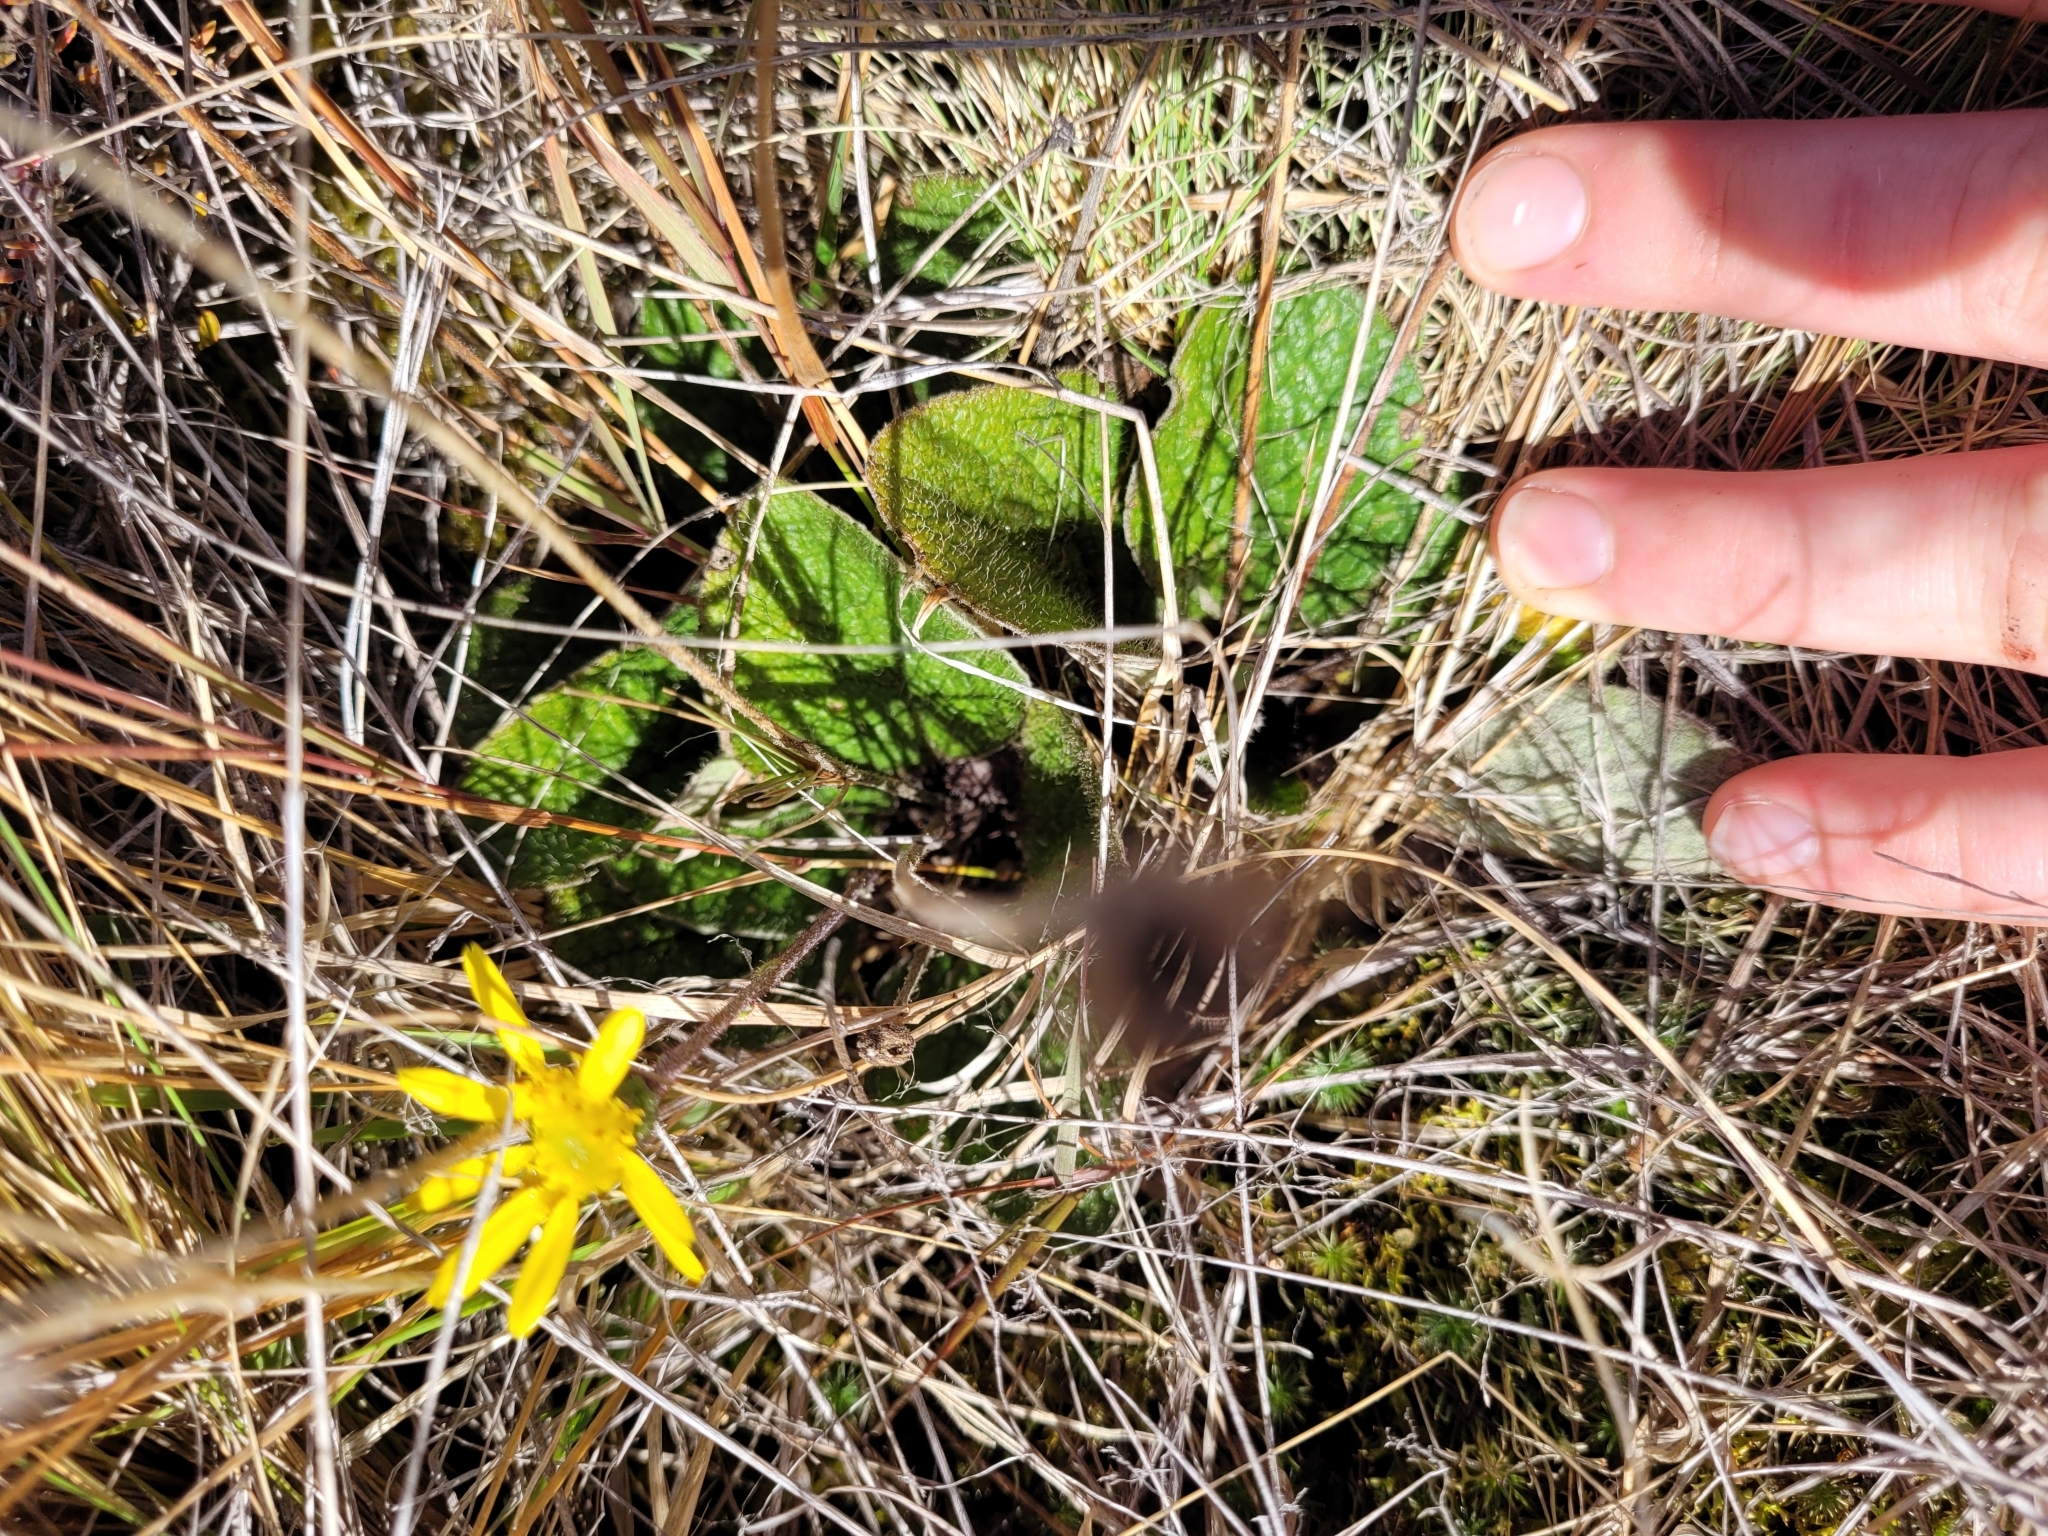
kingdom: Plantae
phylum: Tracheophyta
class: Magnoliopsida
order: Asterales
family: Asteraceae
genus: Brachyglottis
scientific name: Brachyglottis lagopus
